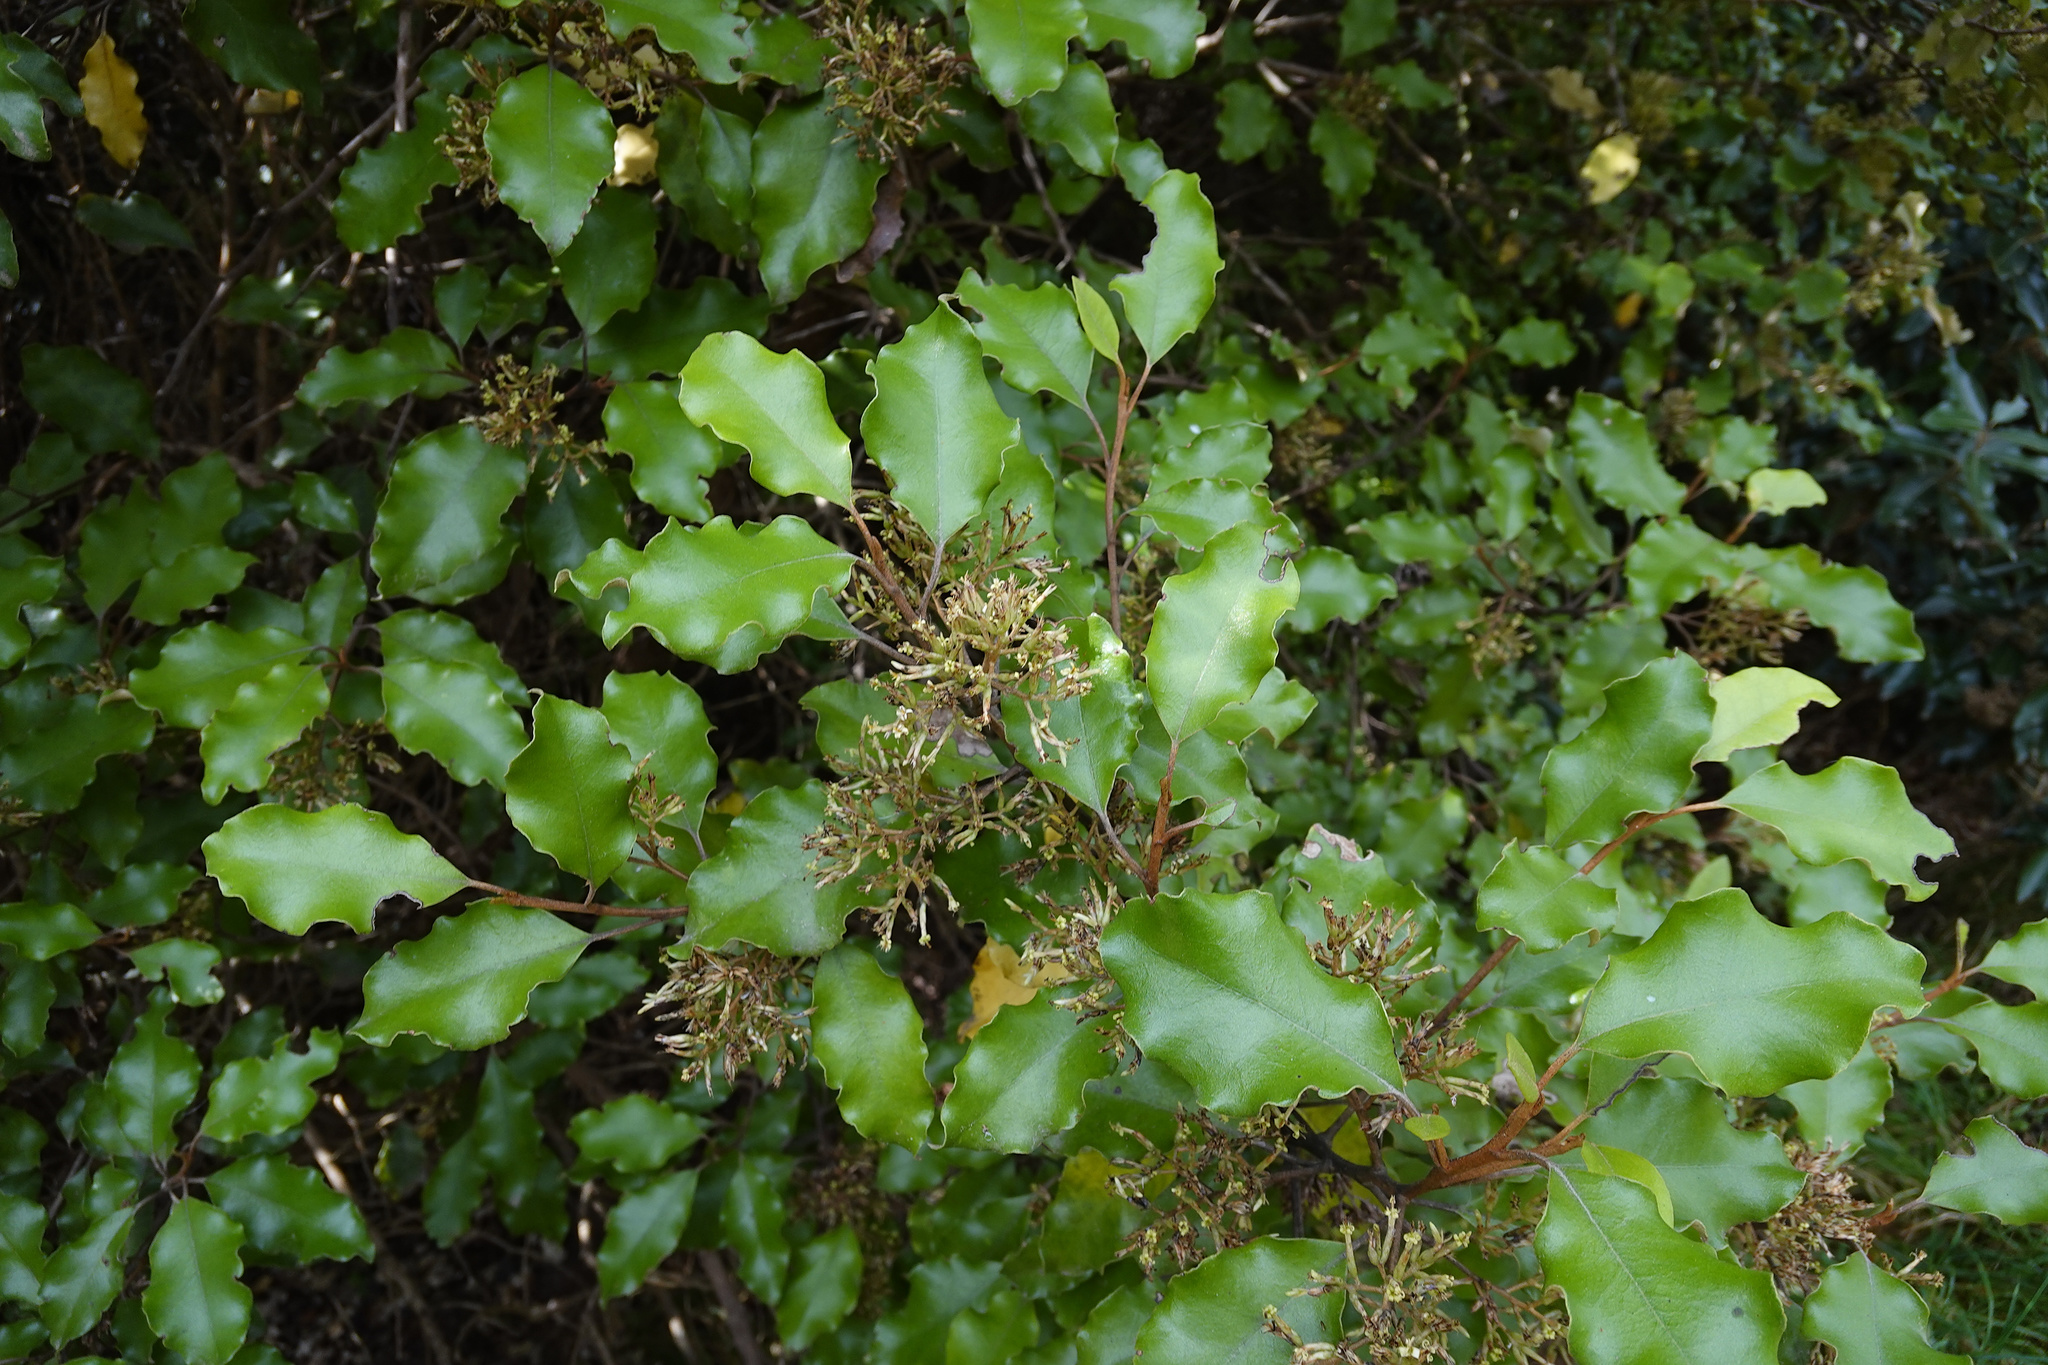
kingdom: Plantae
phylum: Tracheophyta
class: Magnoliopsida
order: Asterales
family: Asteraceae
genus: Olearia
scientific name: Olearia paniculata
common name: Akiraho
